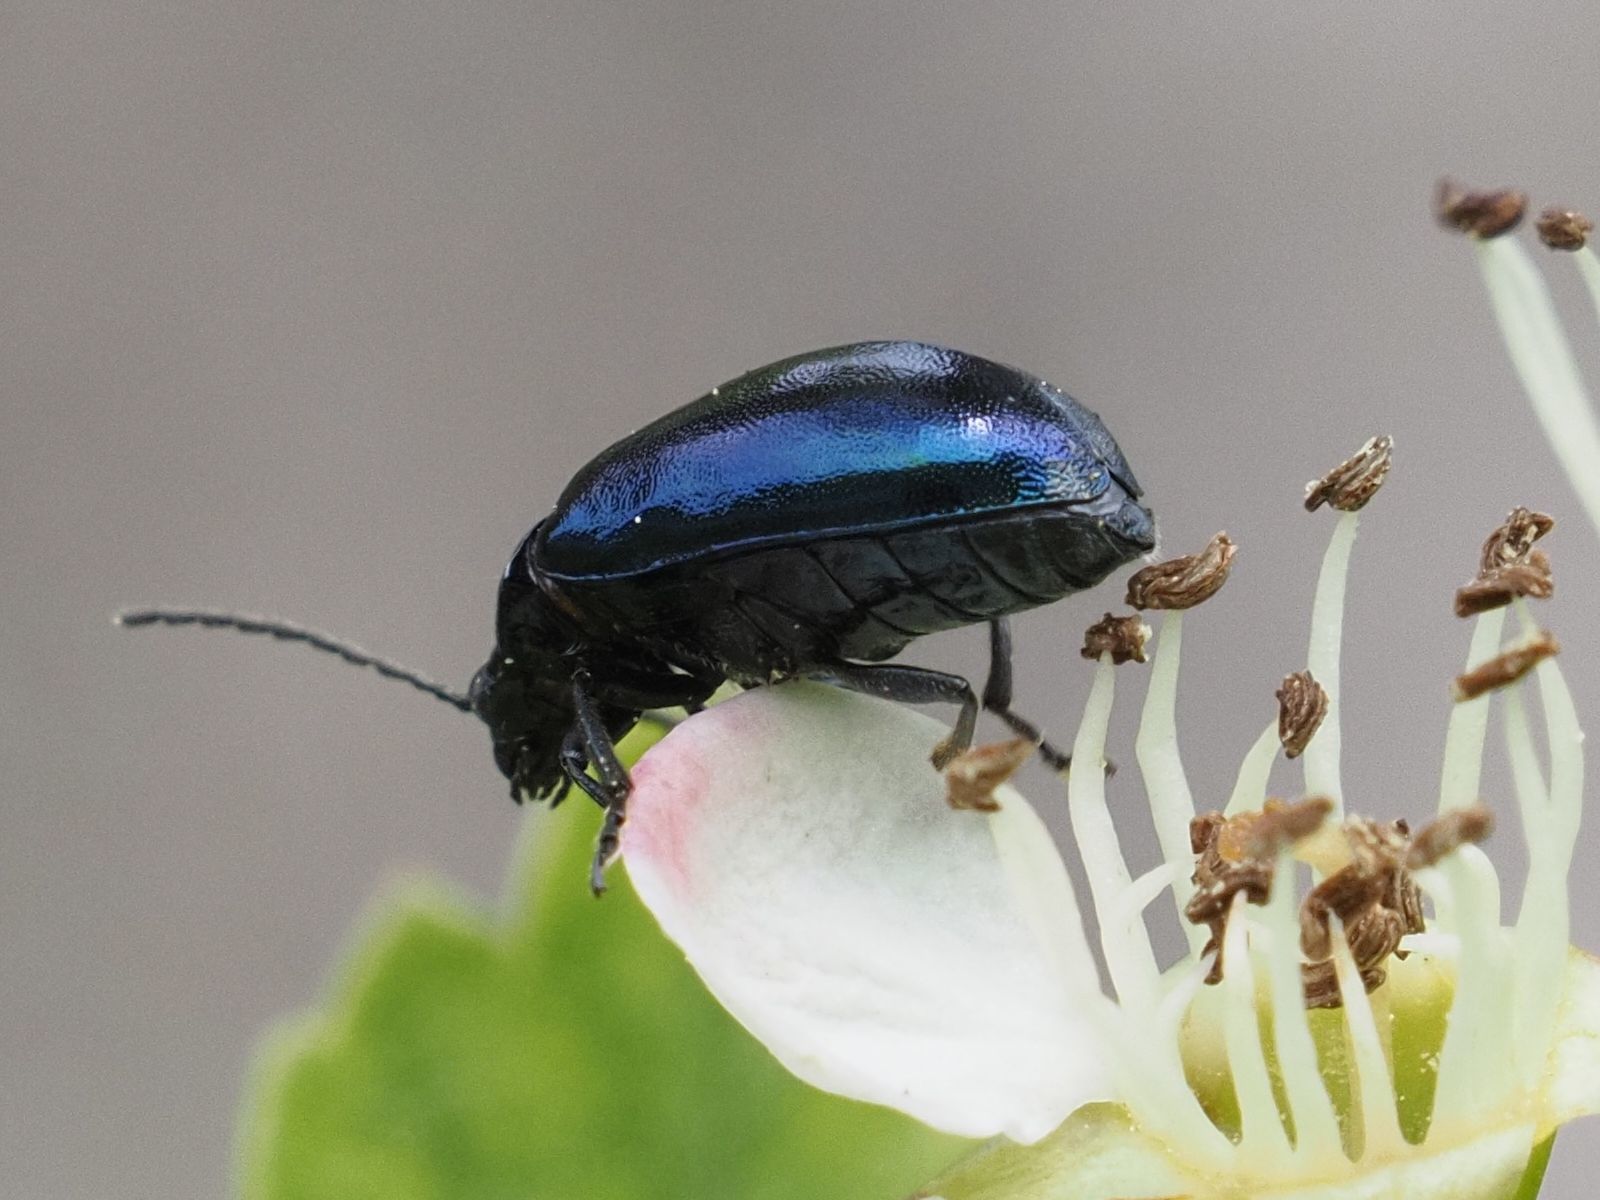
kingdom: Animalia
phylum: Arthropoda
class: Insecta
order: Coleoptera
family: Chrysomelidae
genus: Agelastica
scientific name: Agelastica alni
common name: Alder leaf beetle
